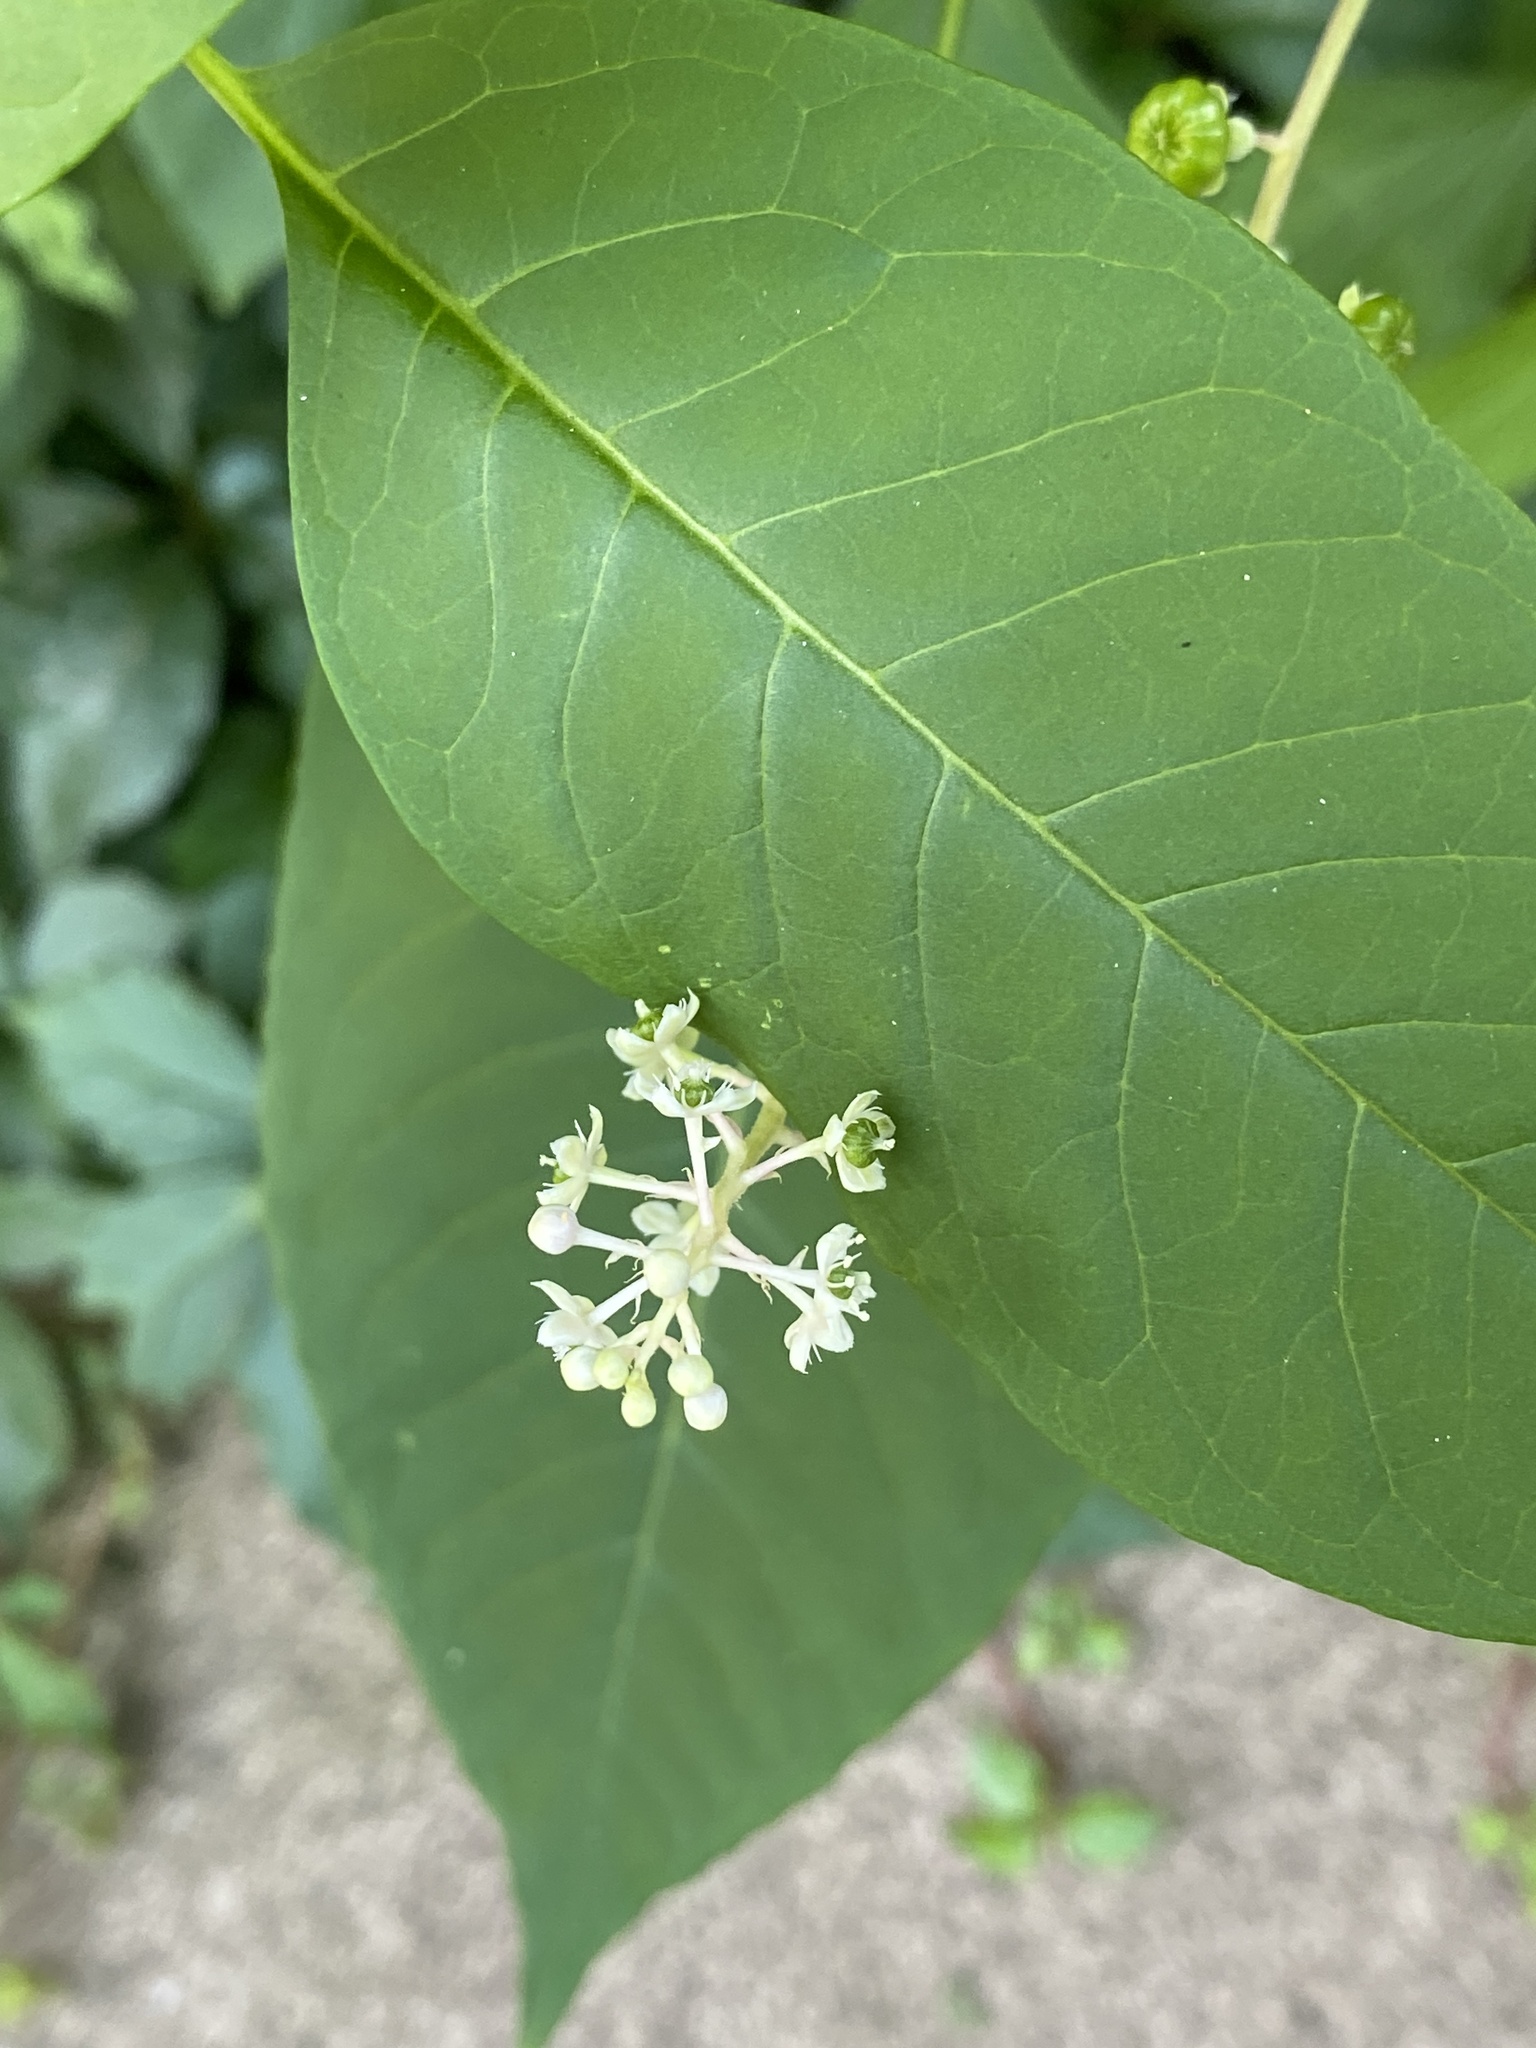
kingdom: Plantae
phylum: Tracheophyta
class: Magnoliopsida
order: Caryophyllales
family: Phytolaccaceae
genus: Phytolacca
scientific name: Phytolacca americana
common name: American pokeweed
